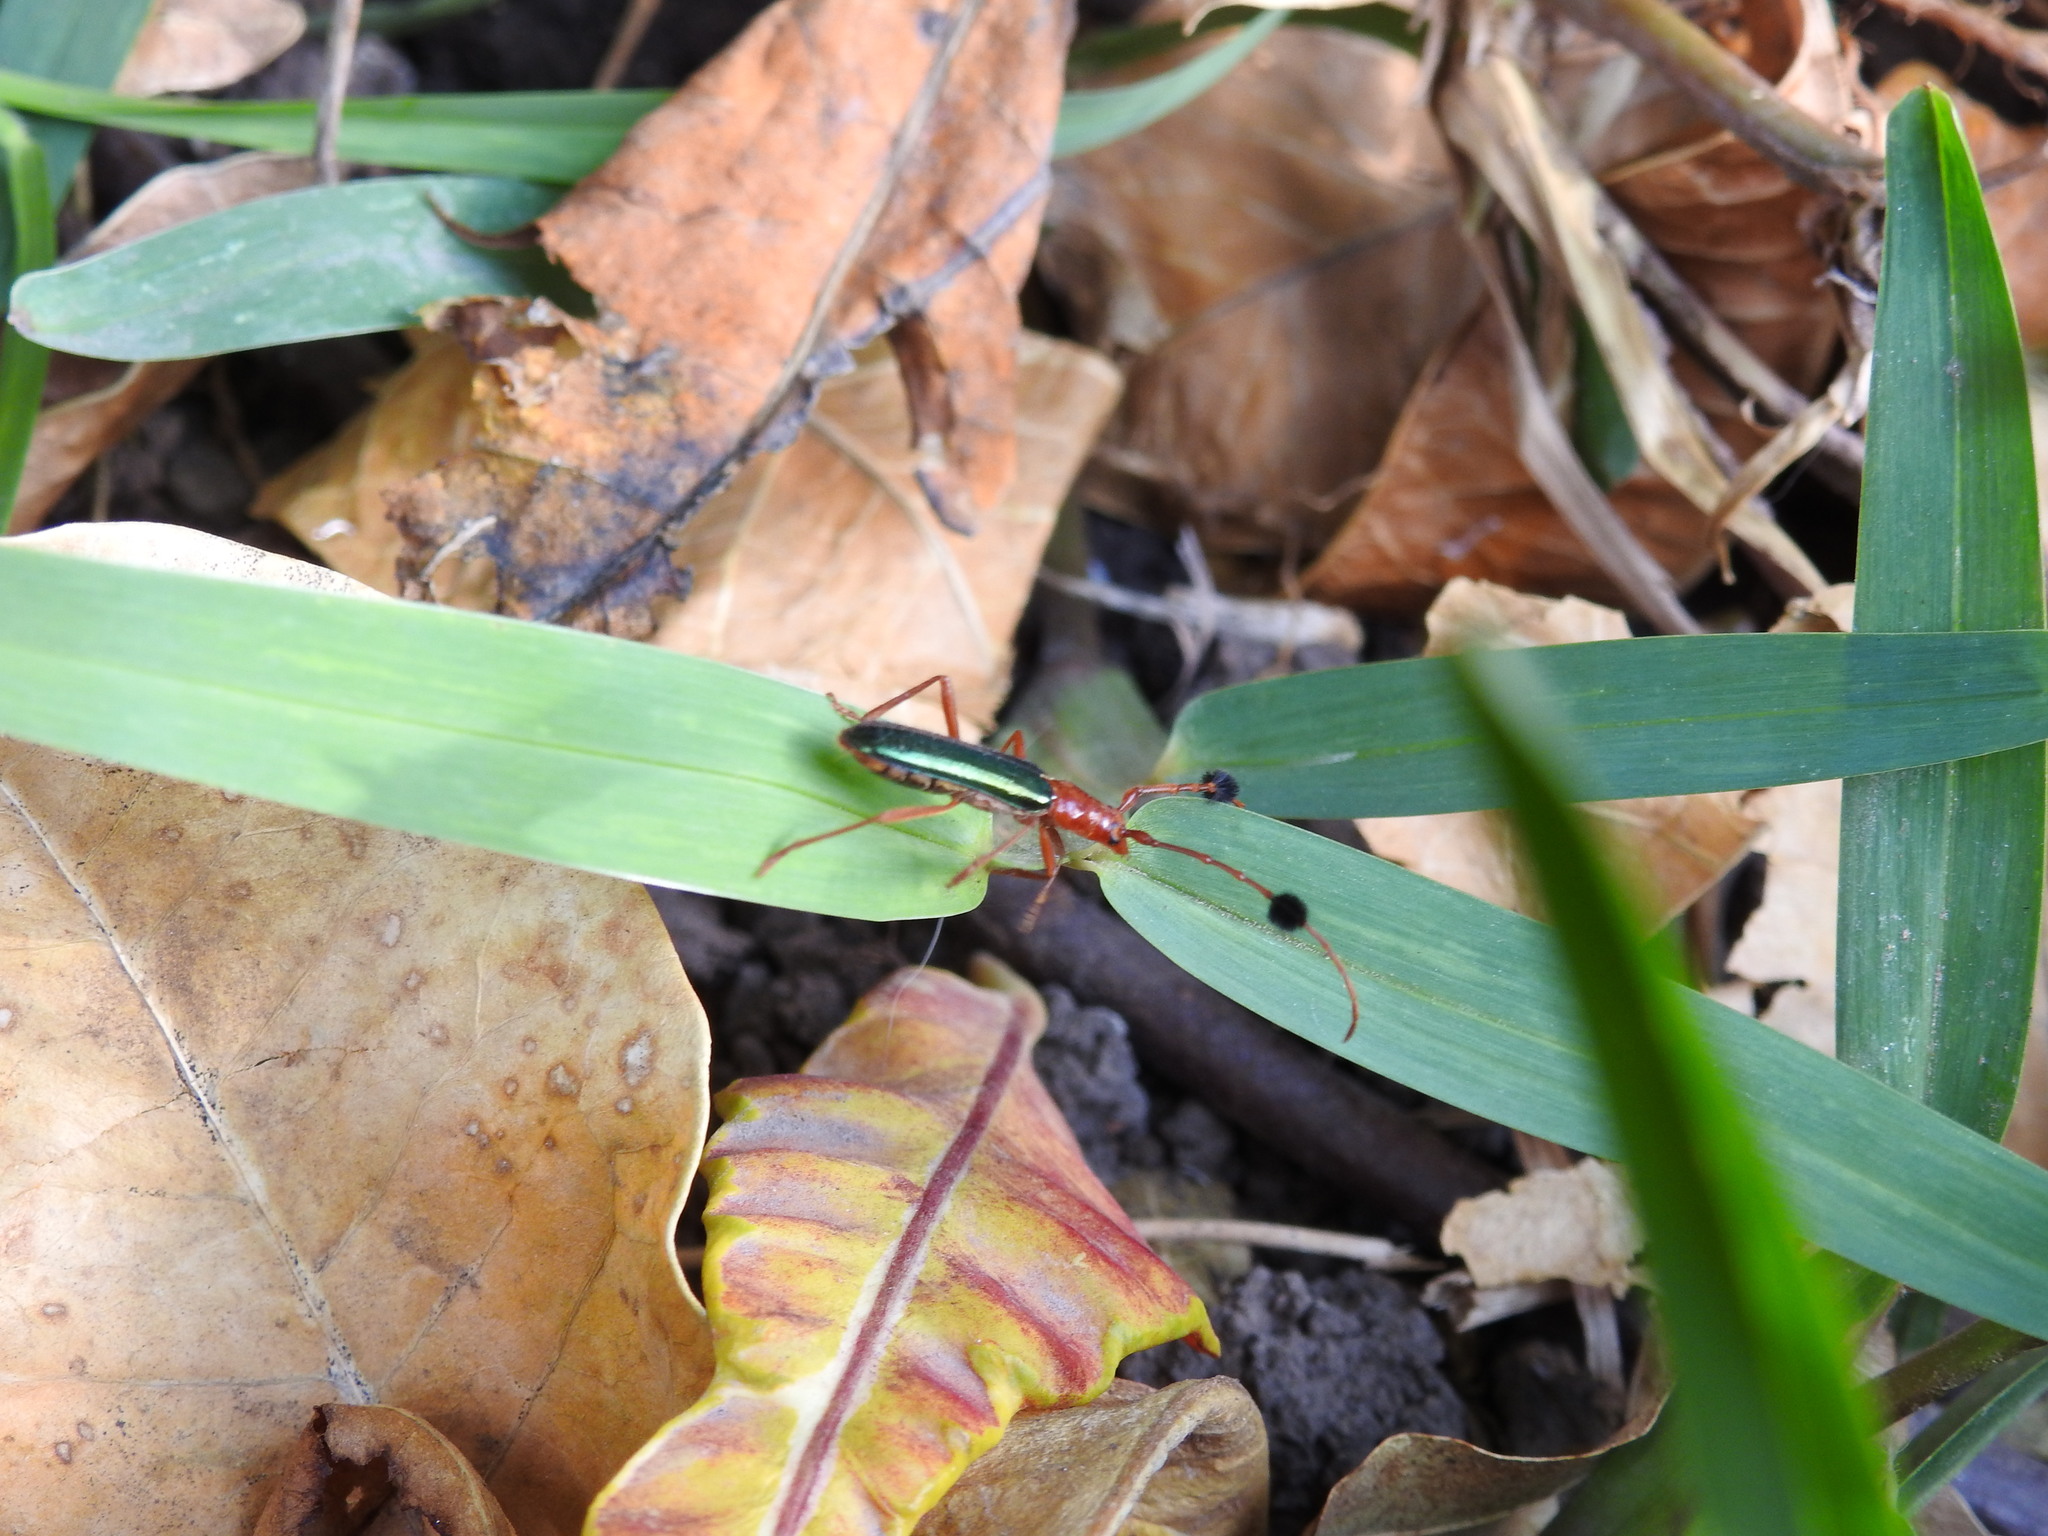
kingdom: Animalia
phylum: Arthropoda
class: Insecta
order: Coleoptera
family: Cerambycidae
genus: Compsocerus
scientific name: Compsocerus violaceus
